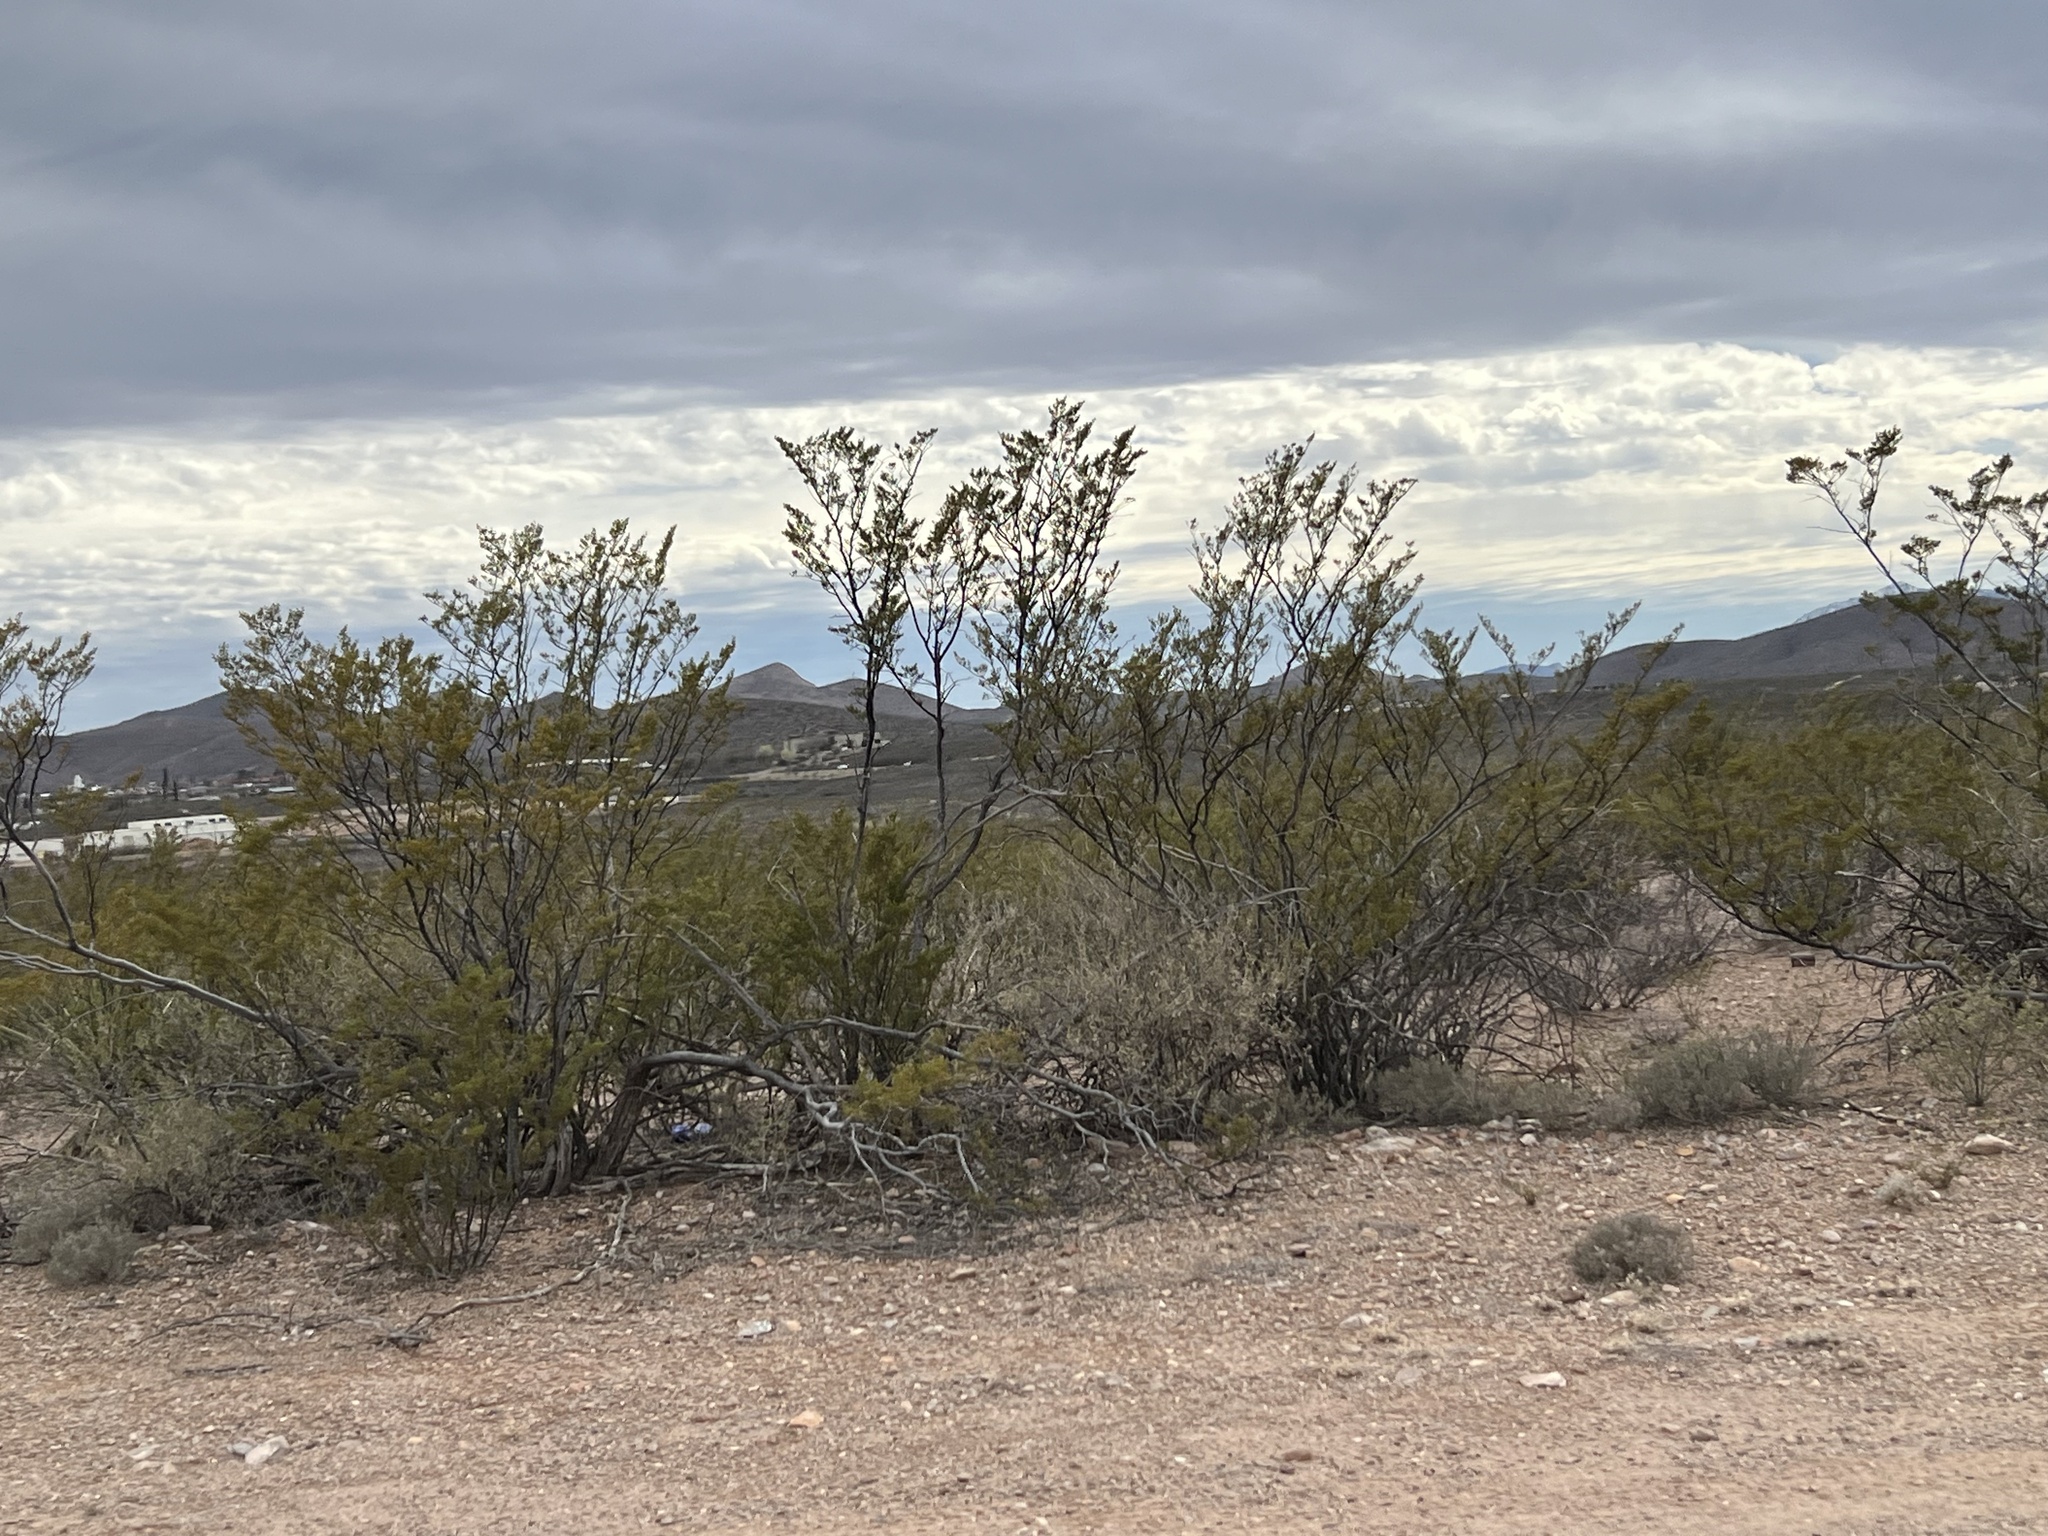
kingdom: Plantae
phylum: Tracheophyta
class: Magnoliopsida
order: Zygophyllales
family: Zygophyllaceae
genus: Larrea
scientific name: Larrea tridentata
